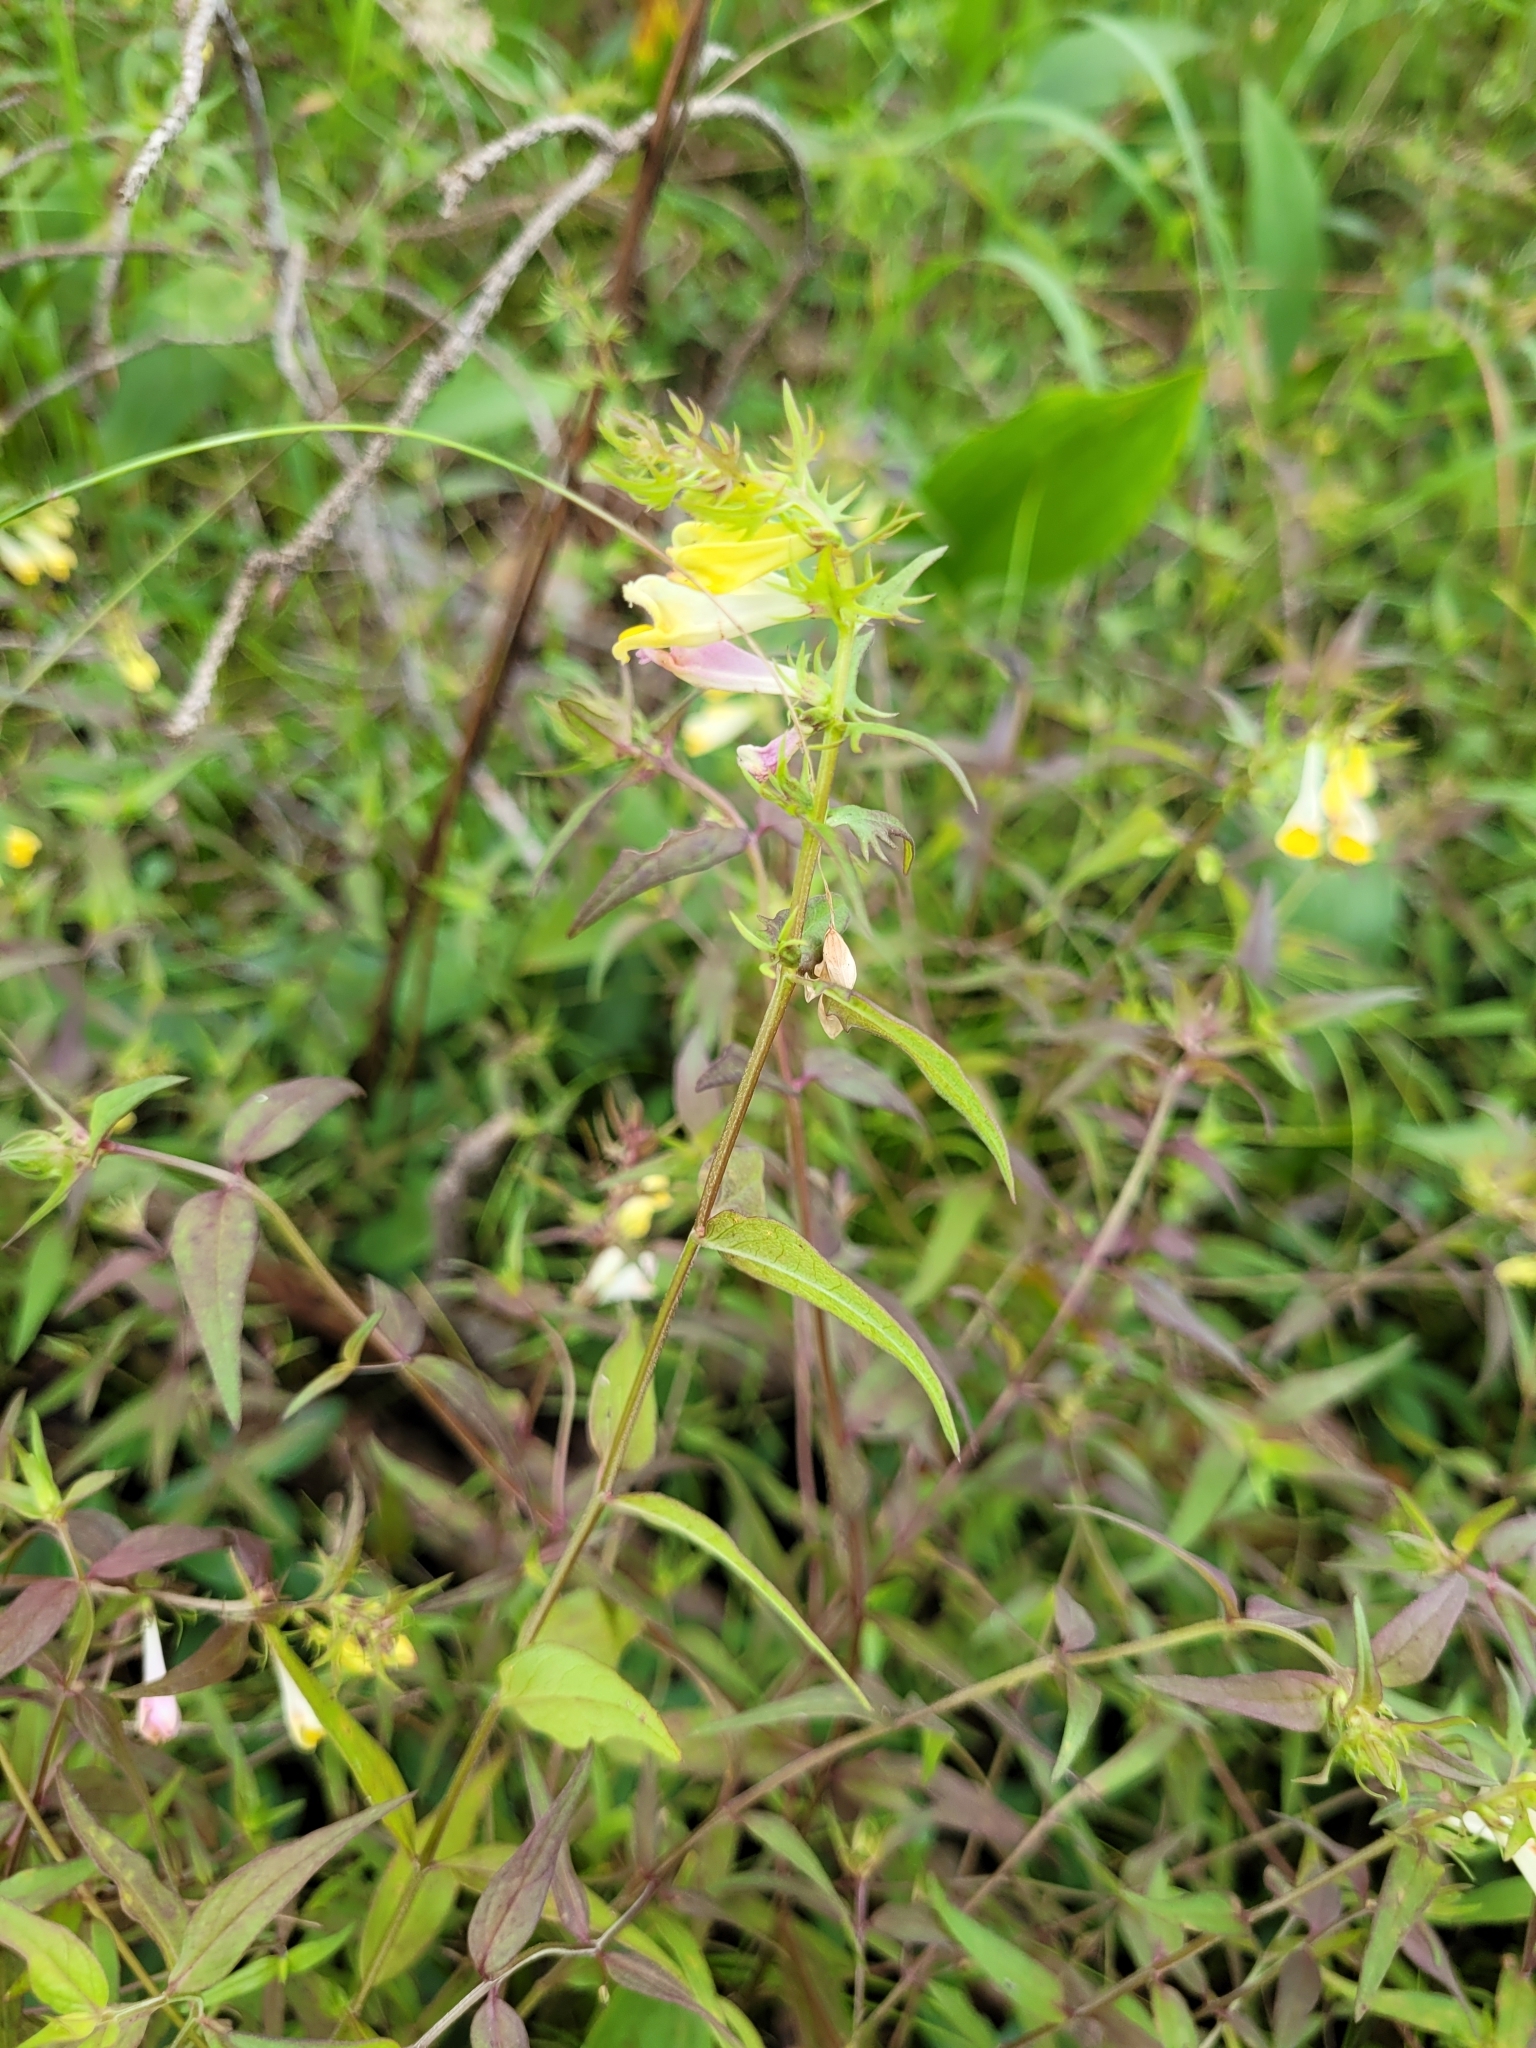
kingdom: Plantae
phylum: Tracheophyta
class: Magnoliopsida
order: Lamiales
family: Orobanchaceae
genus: Melampyrum
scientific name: Melampyrum pratense
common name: Common cow-wheat
